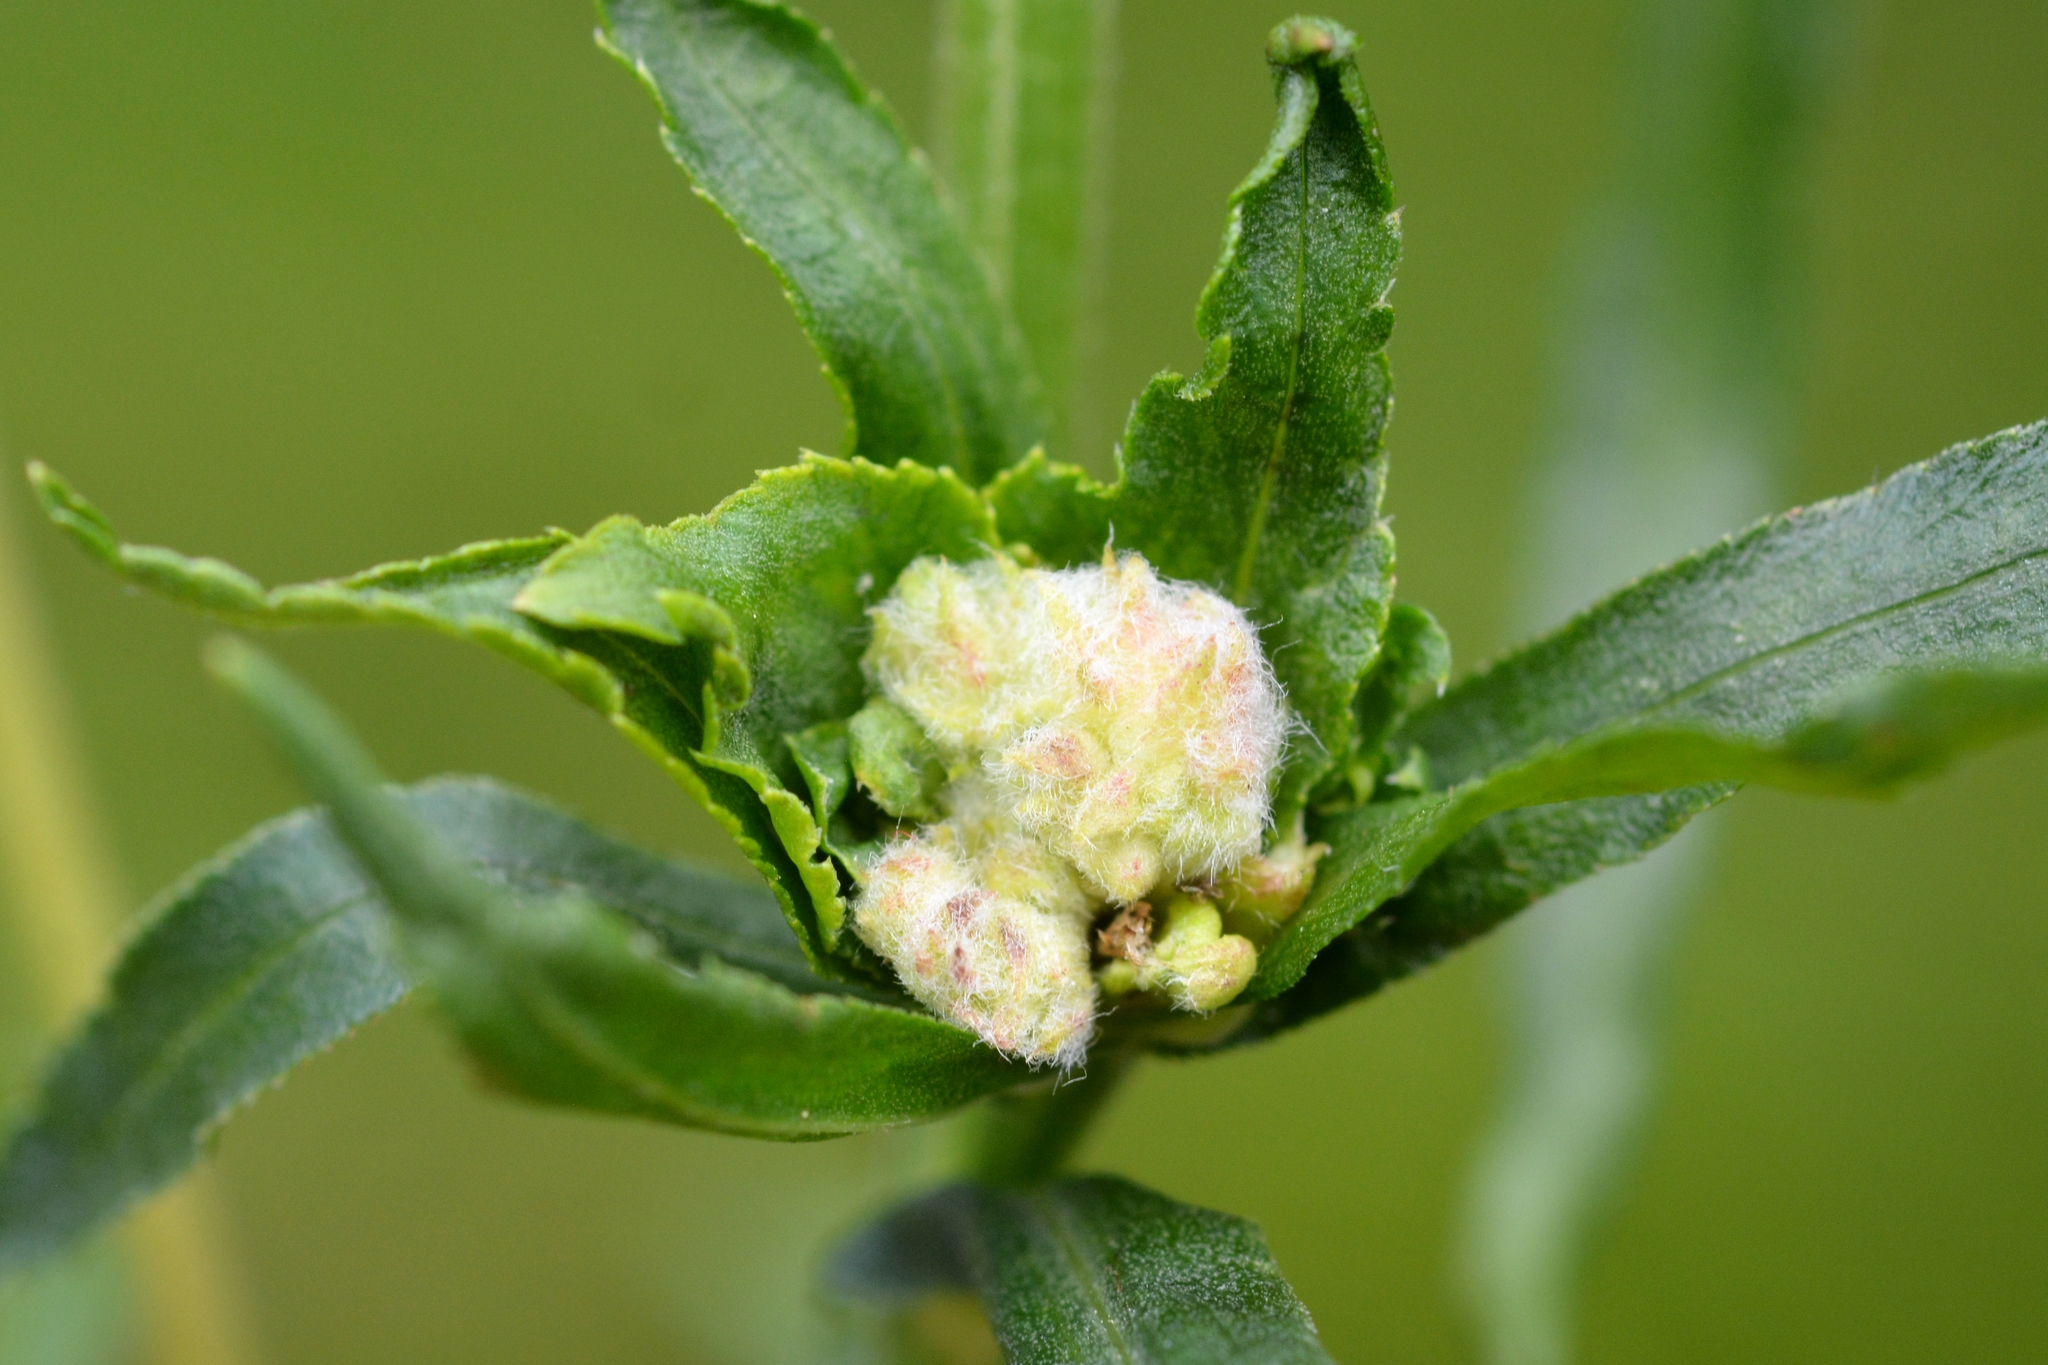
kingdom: Animalia
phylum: Arthropoda
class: Insecta
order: Diptera
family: Cecidomyiidae
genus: Rhopalomyia
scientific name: Rhopalomyia ptarmicae
